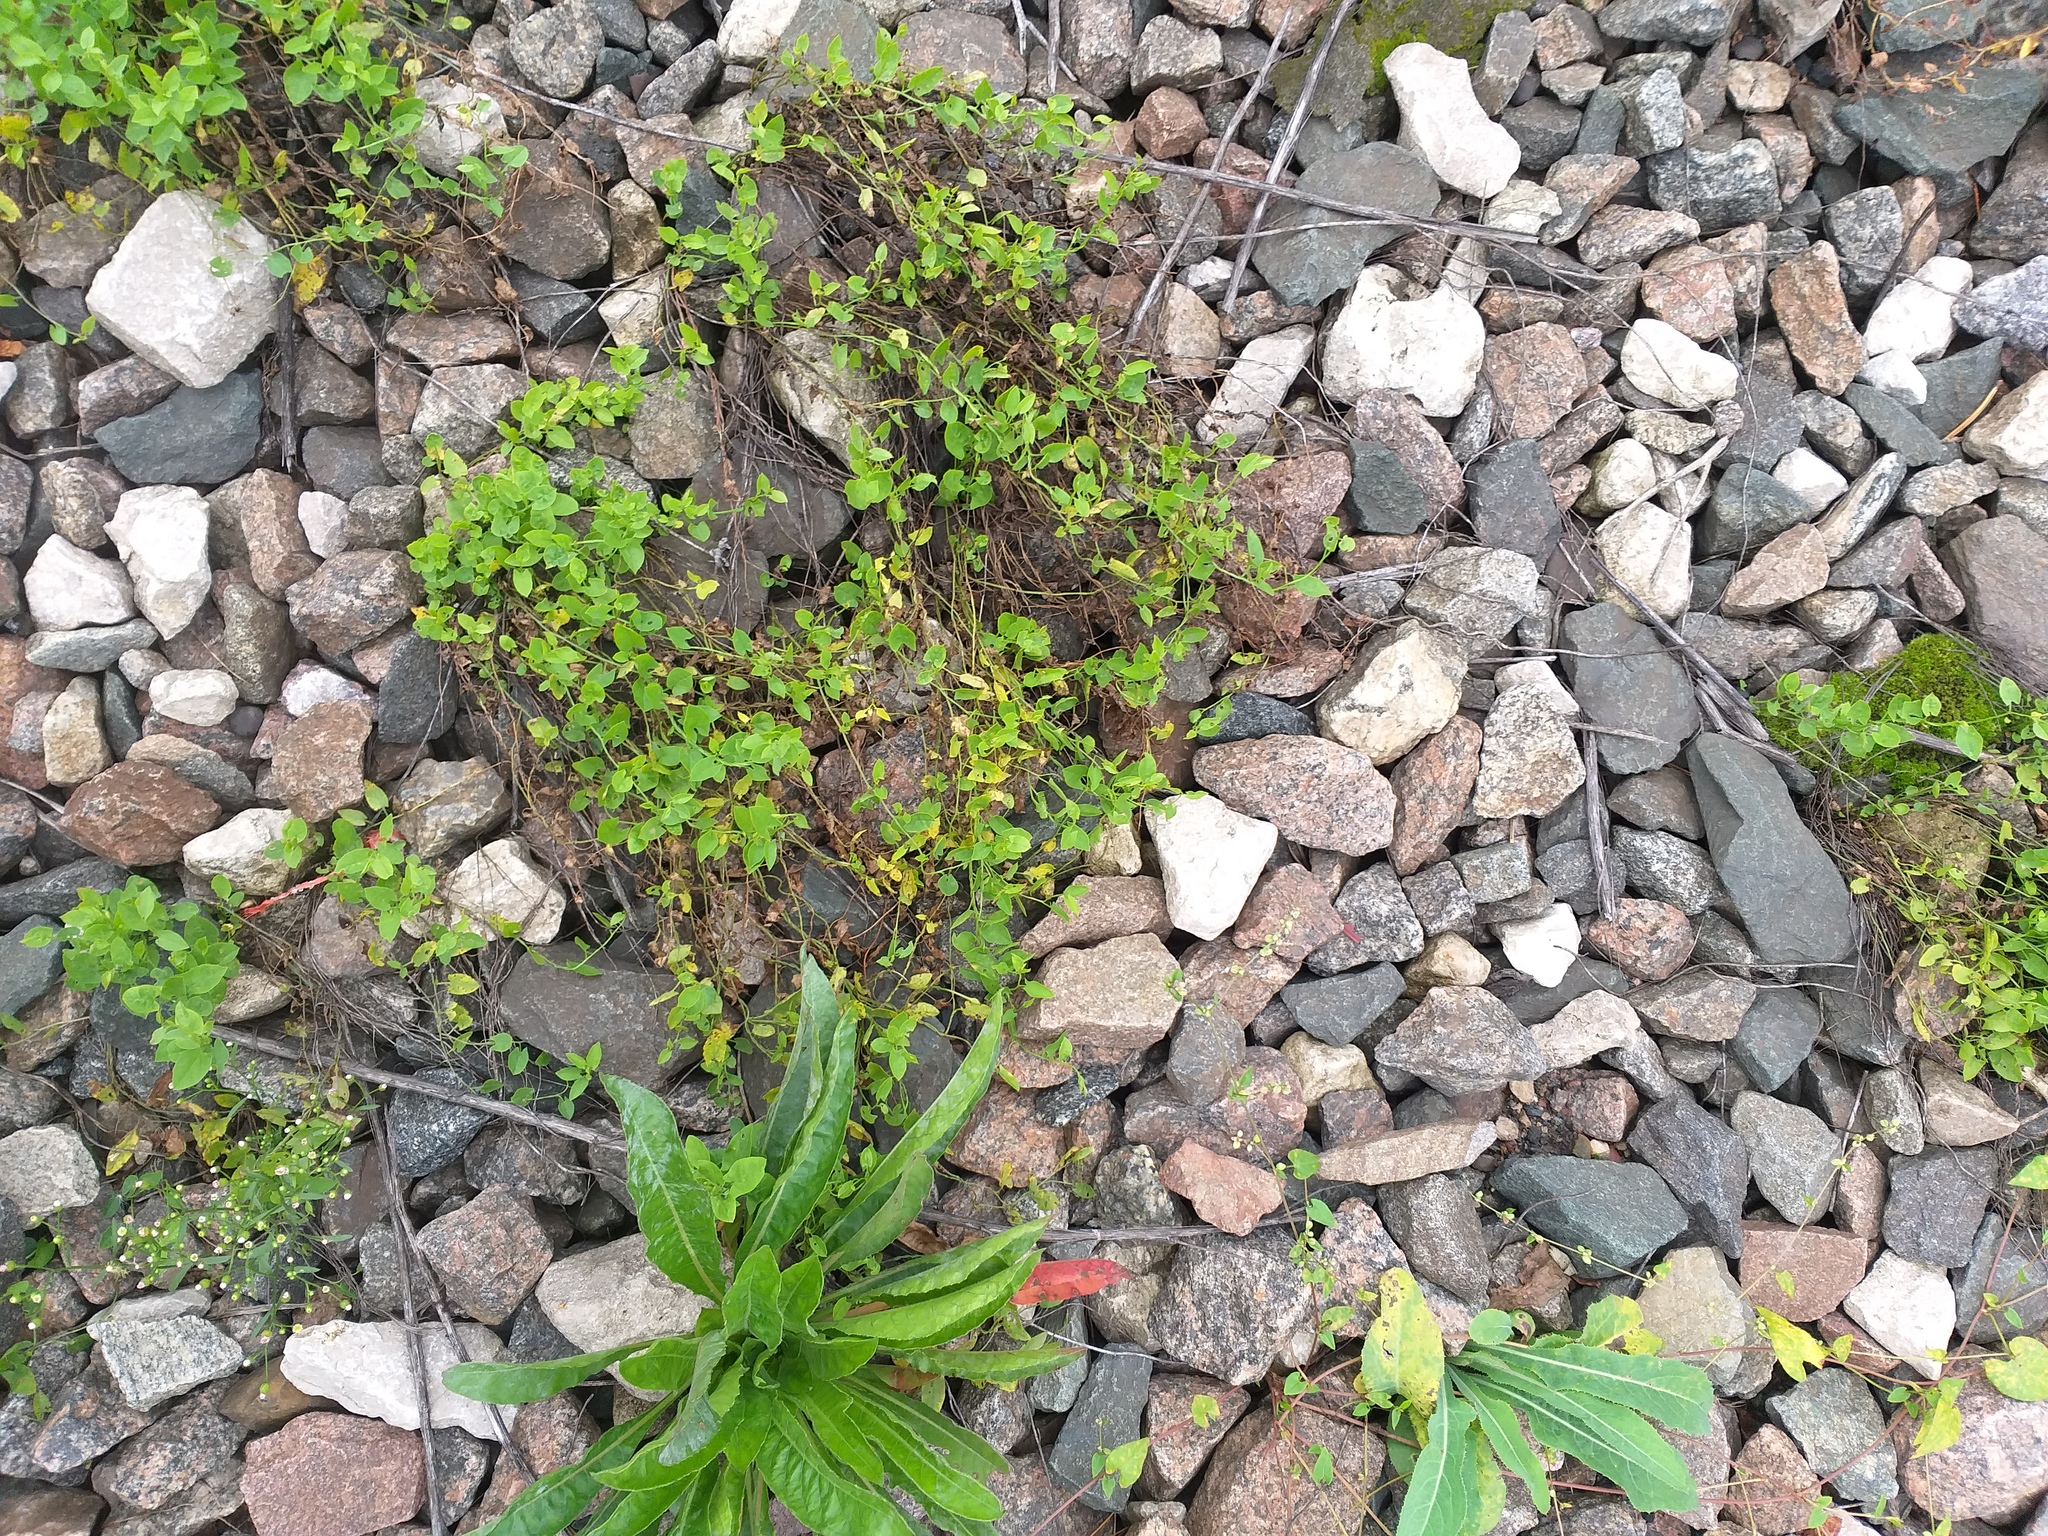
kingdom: Plantae
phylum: Tracheophyta
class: Magnoliopsida
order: Solanales
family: Convolvulaceae
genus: Convolvulus
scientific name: Convolvulus arvensis
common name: Field bindweed
